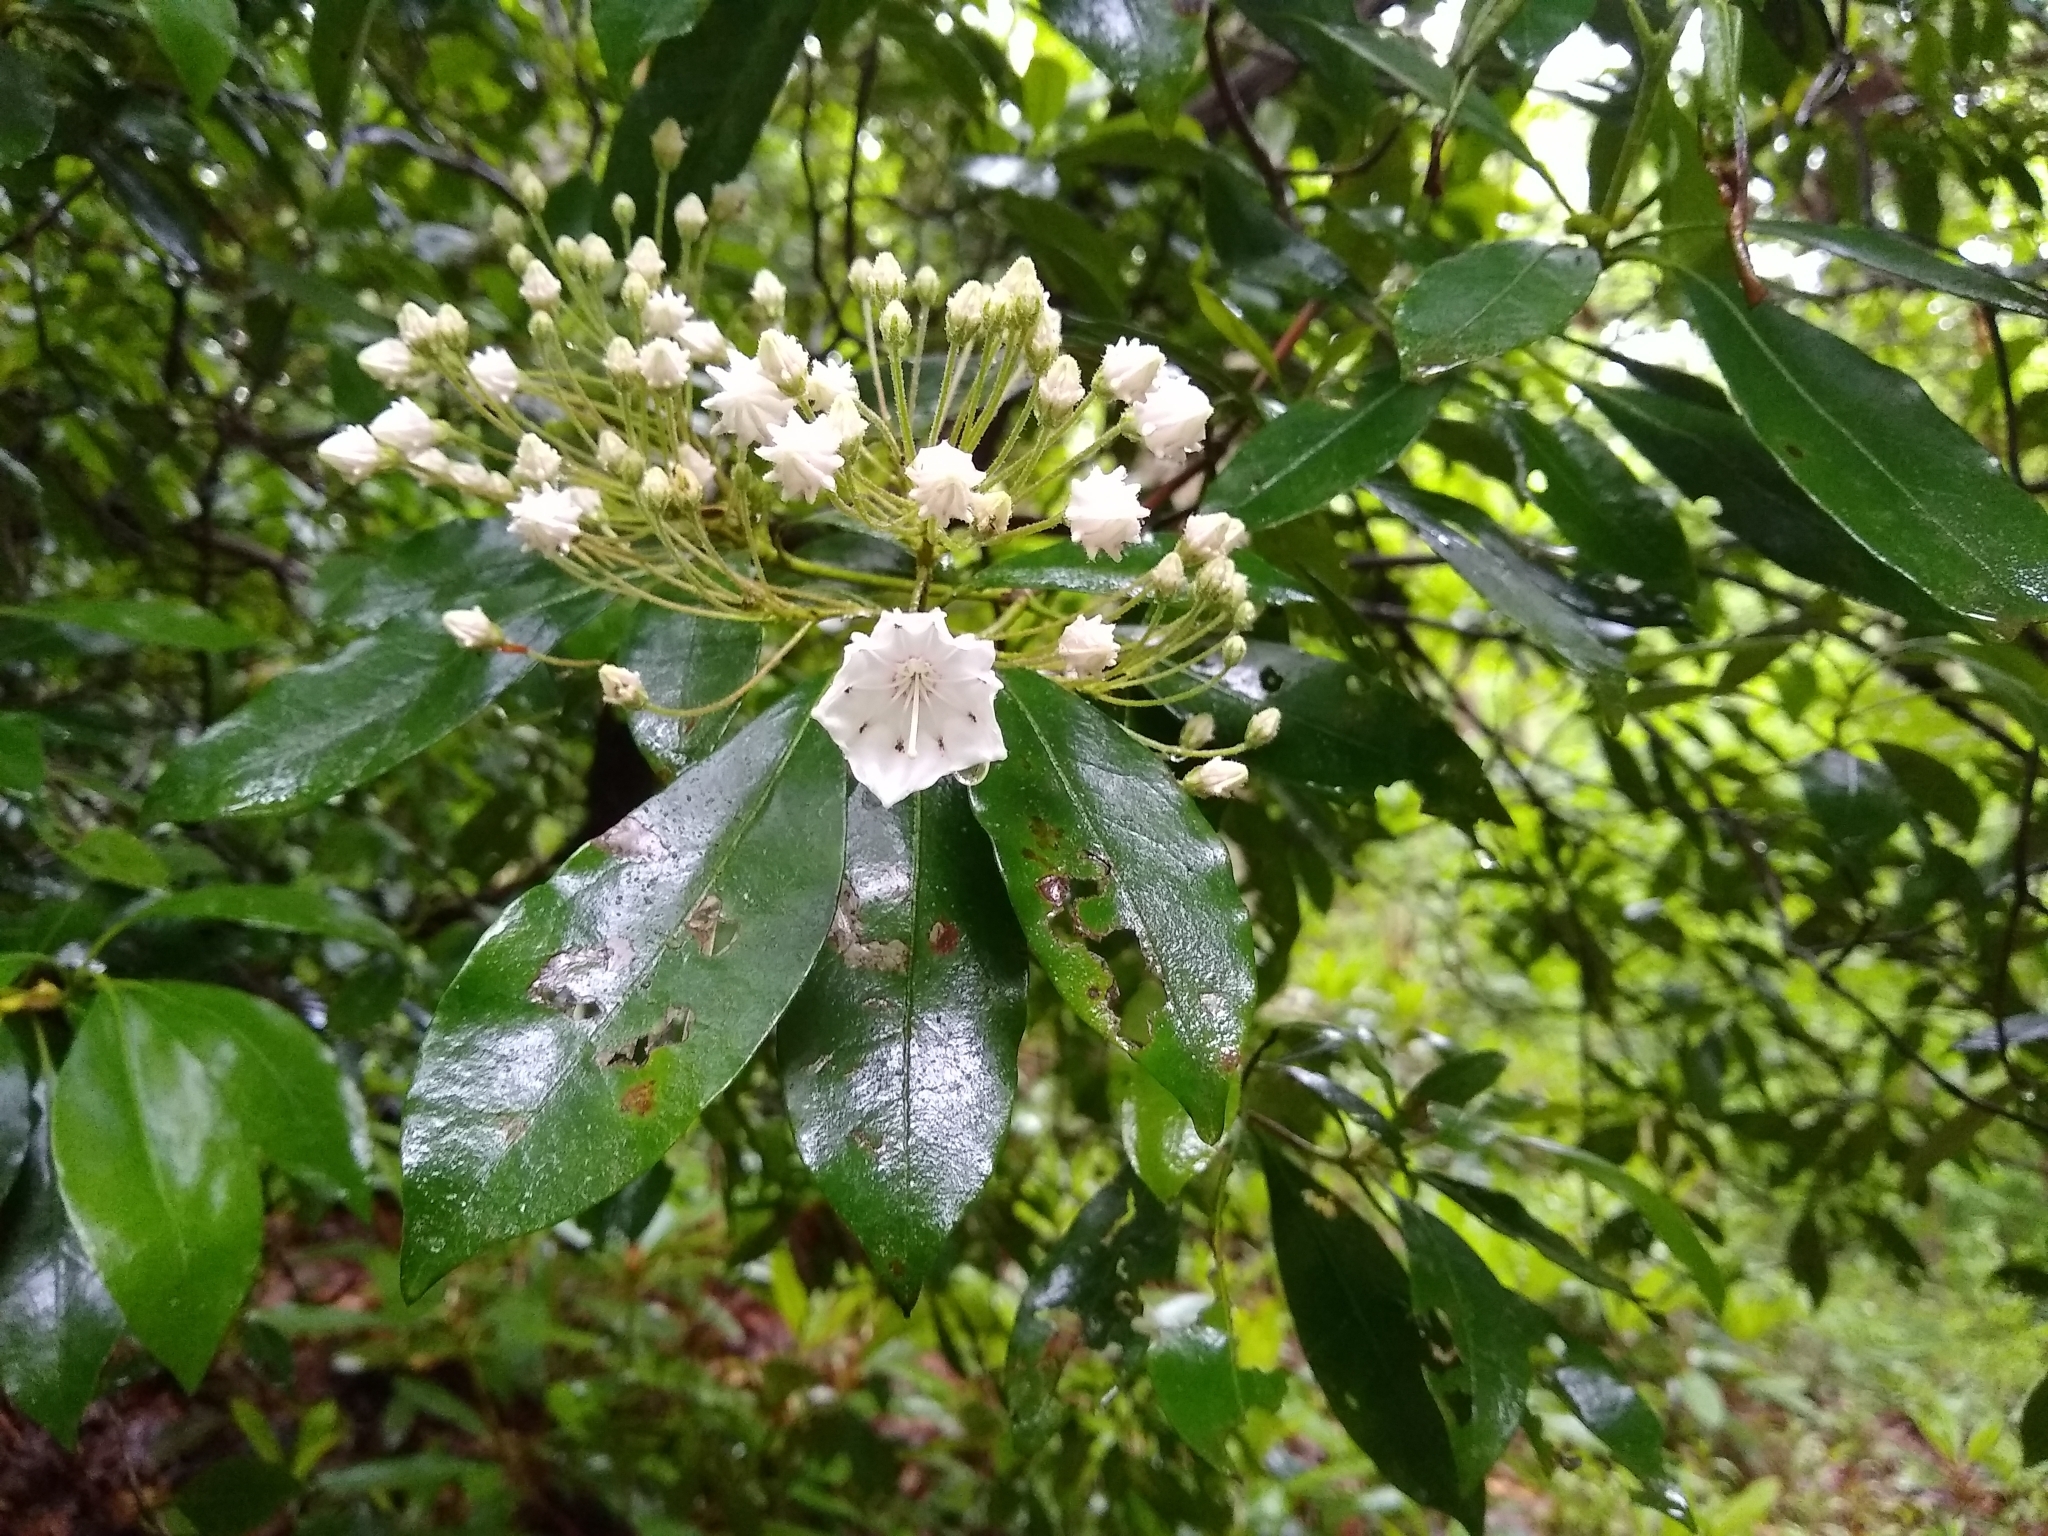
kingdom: Plantae
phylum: Tracheophyta
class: Magnoliopsida
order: Ericales
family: Ericaceae
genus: Kalmia
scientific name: Kalmia latifolia
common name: Mountain-laurel
